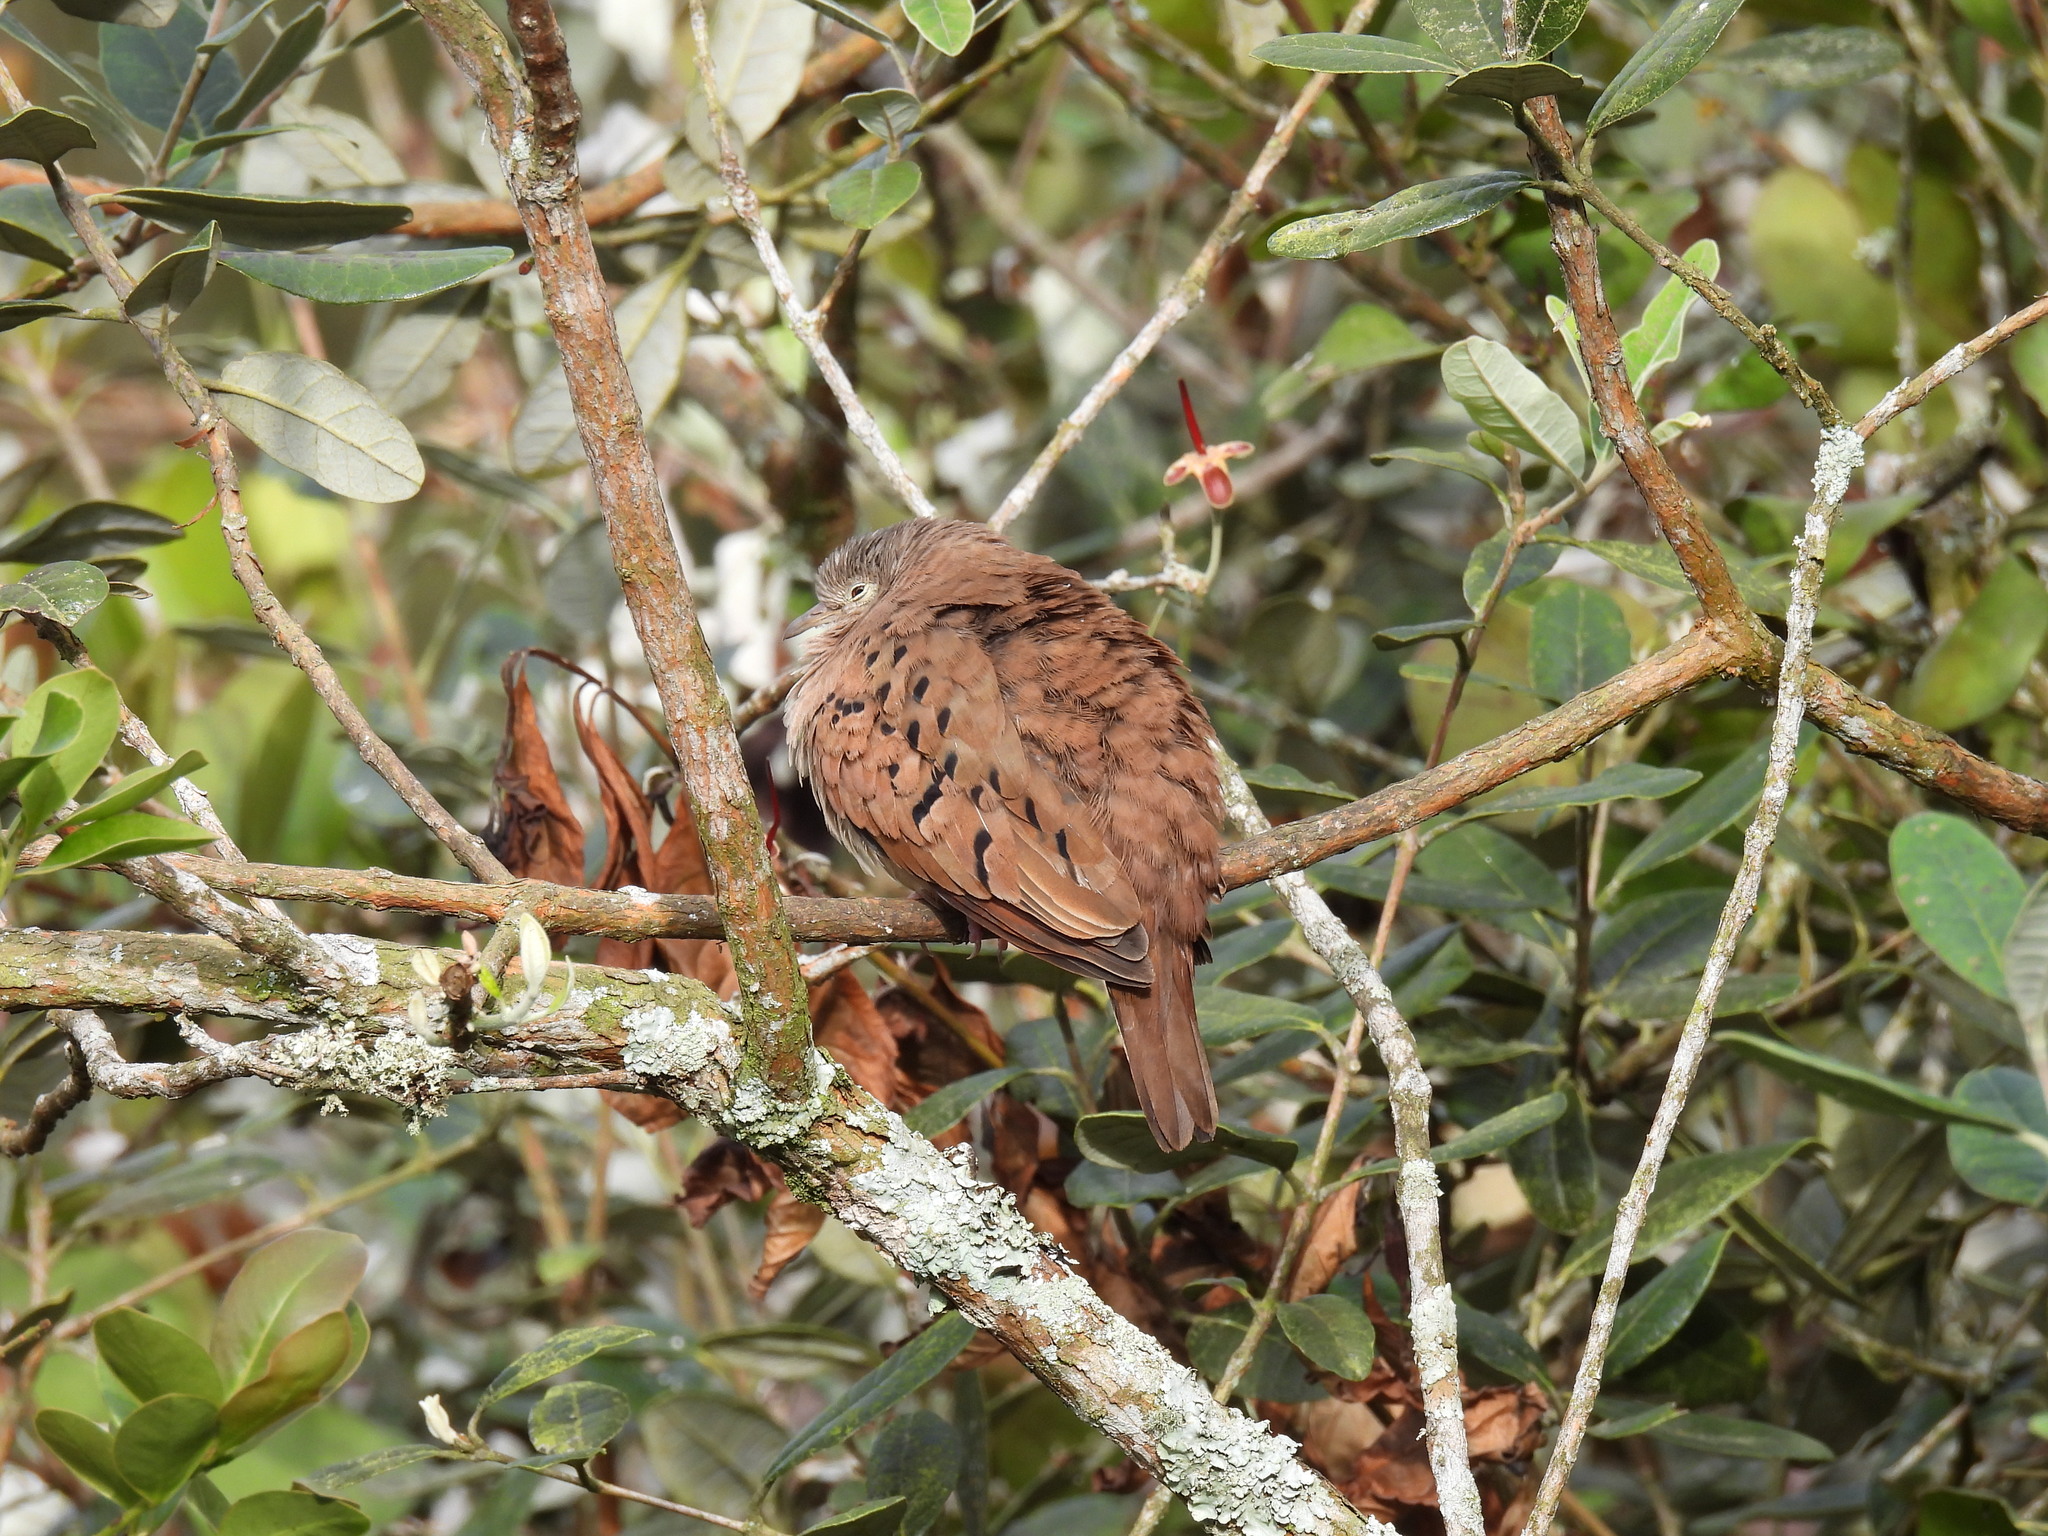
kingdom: Animalia
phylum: Chordata
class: Aves
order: Columbiformes
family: Columbidae
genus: Columbina
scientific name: Columbina talpacoti
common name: Ruddy ground dove
